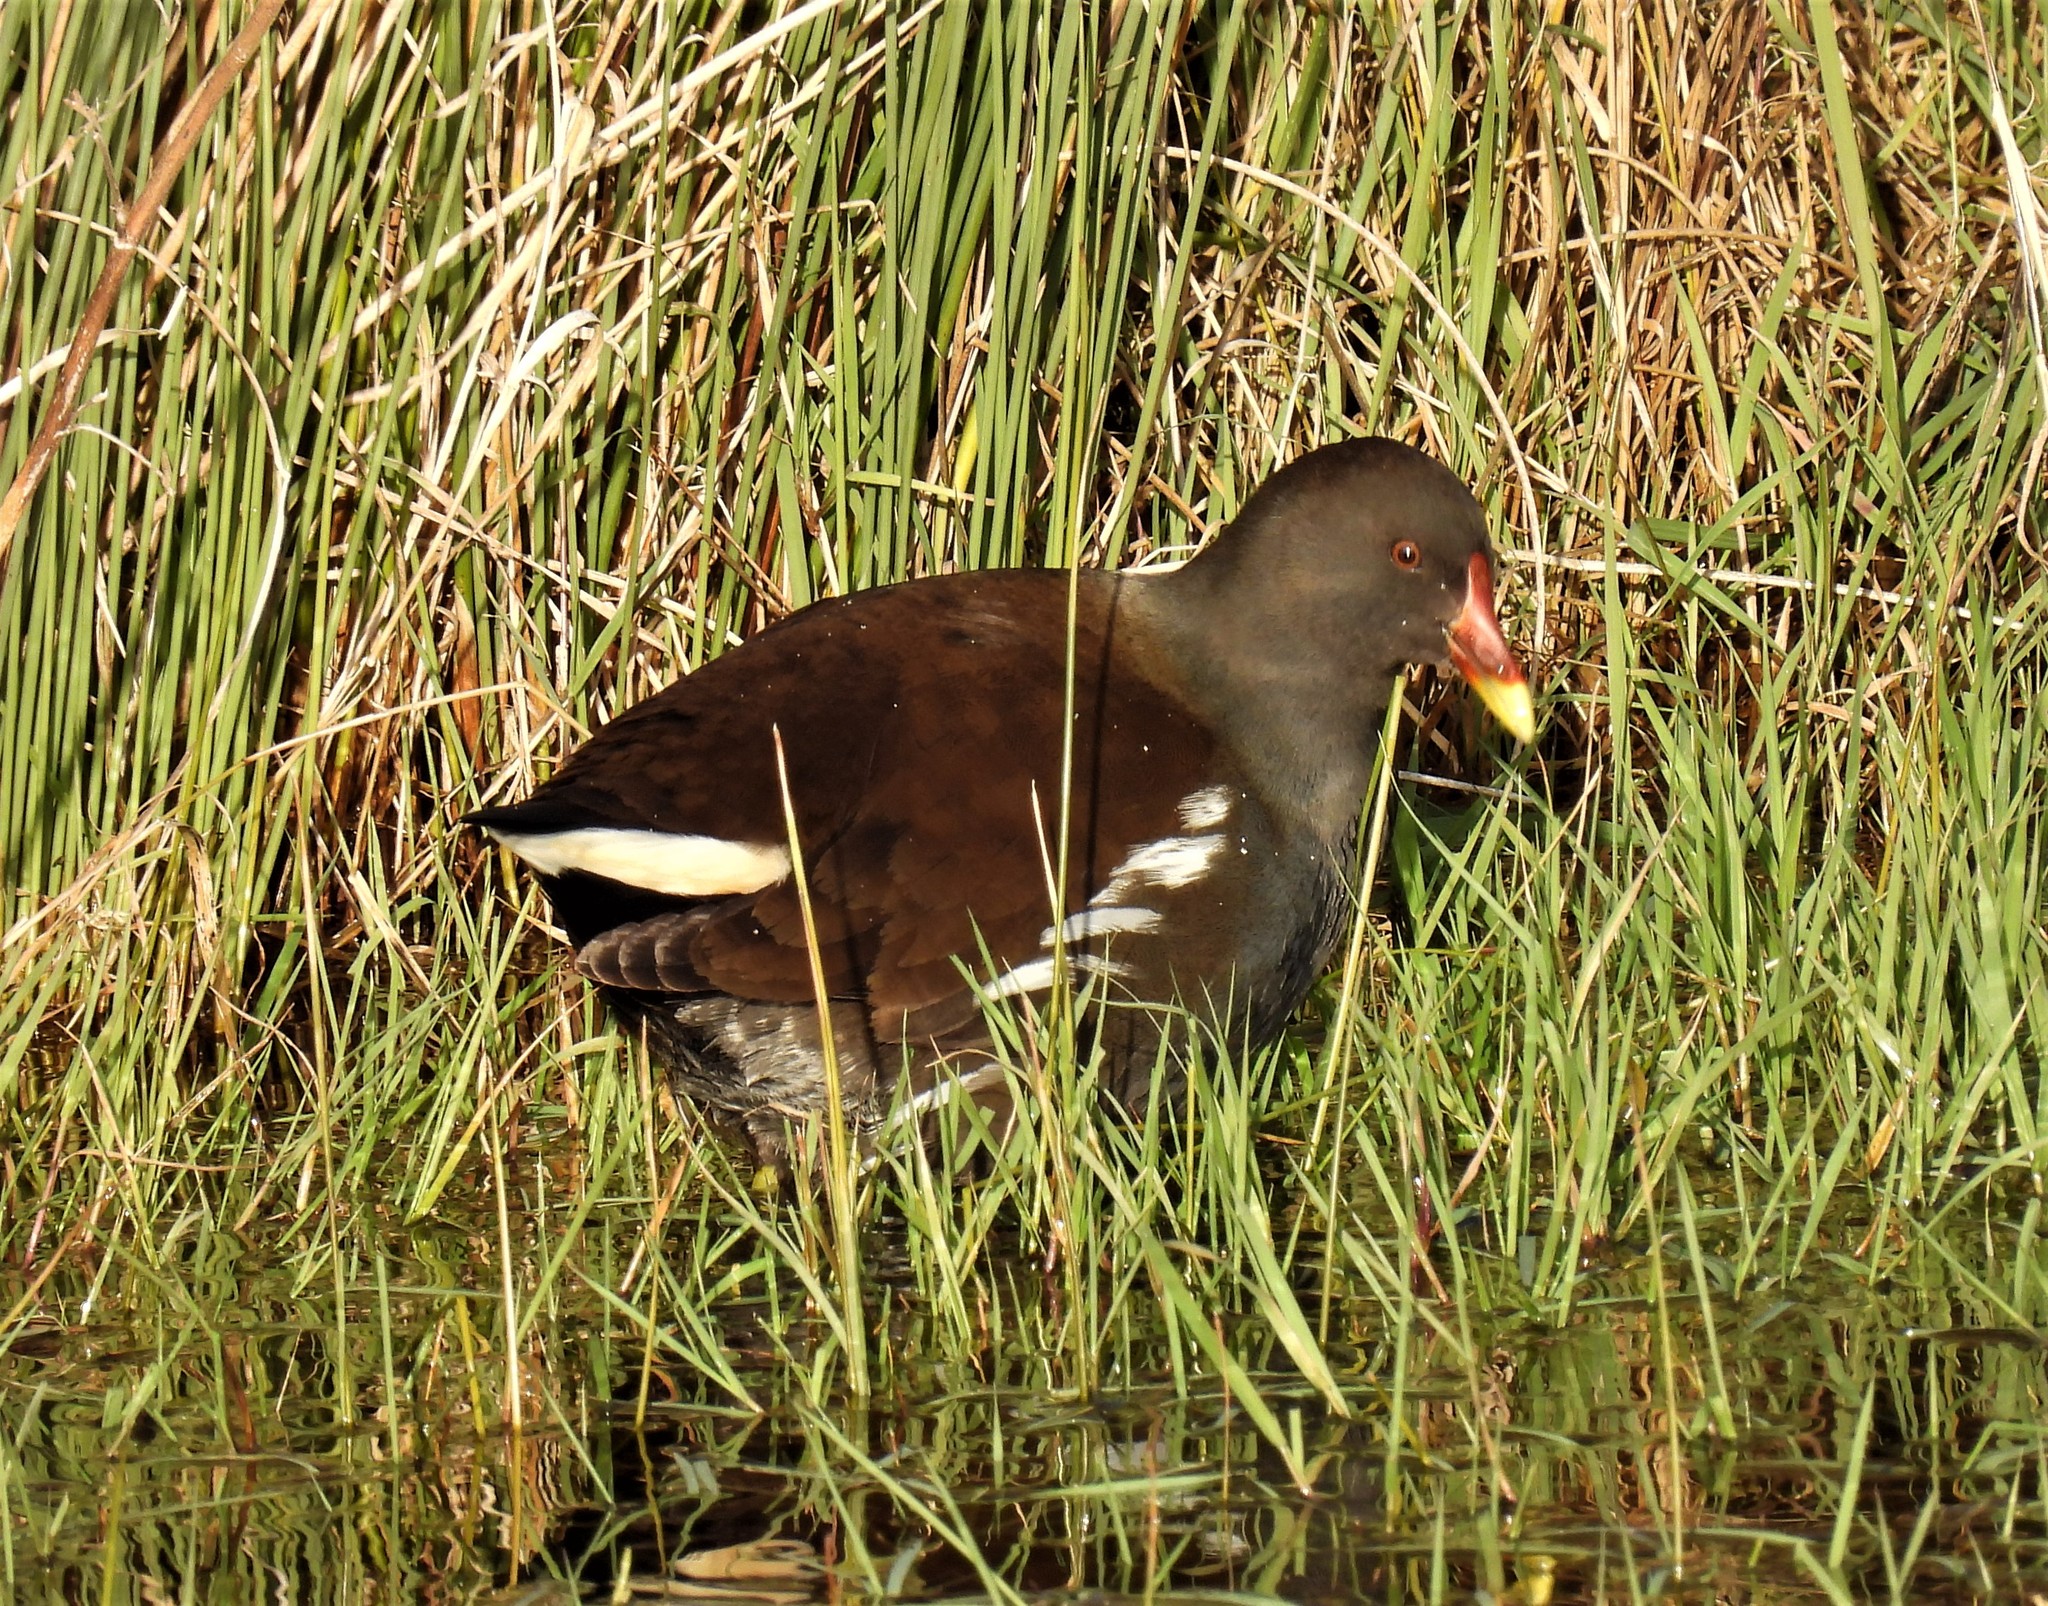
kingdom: Animalia
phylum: Chordata
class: Aves
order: Gruiformes
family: Rallidae
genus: Gallinula
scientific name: Gallinula chloropus
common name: Common moorhen
